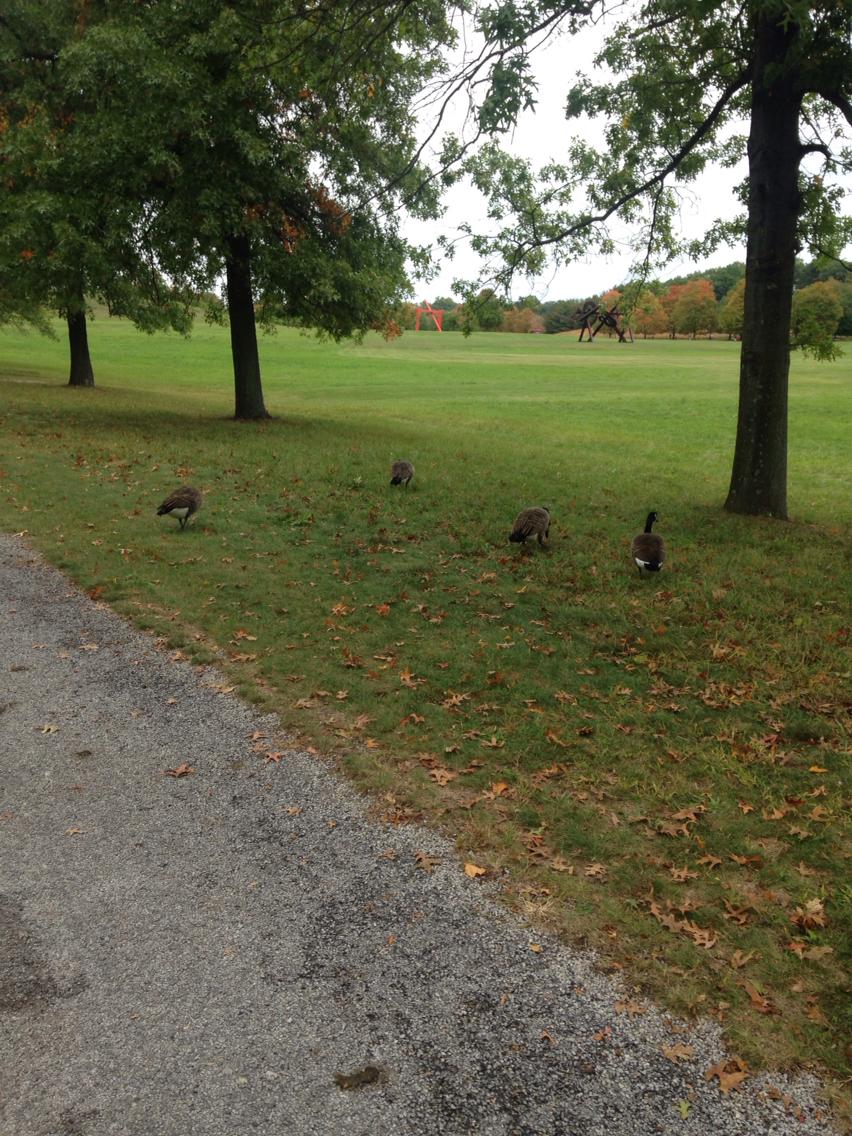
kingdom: Animalia
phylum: Chordata
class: Aves
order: Anseriformes
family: Anatidae
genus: Branta
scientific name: Branta canadensis
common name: Canada goose
